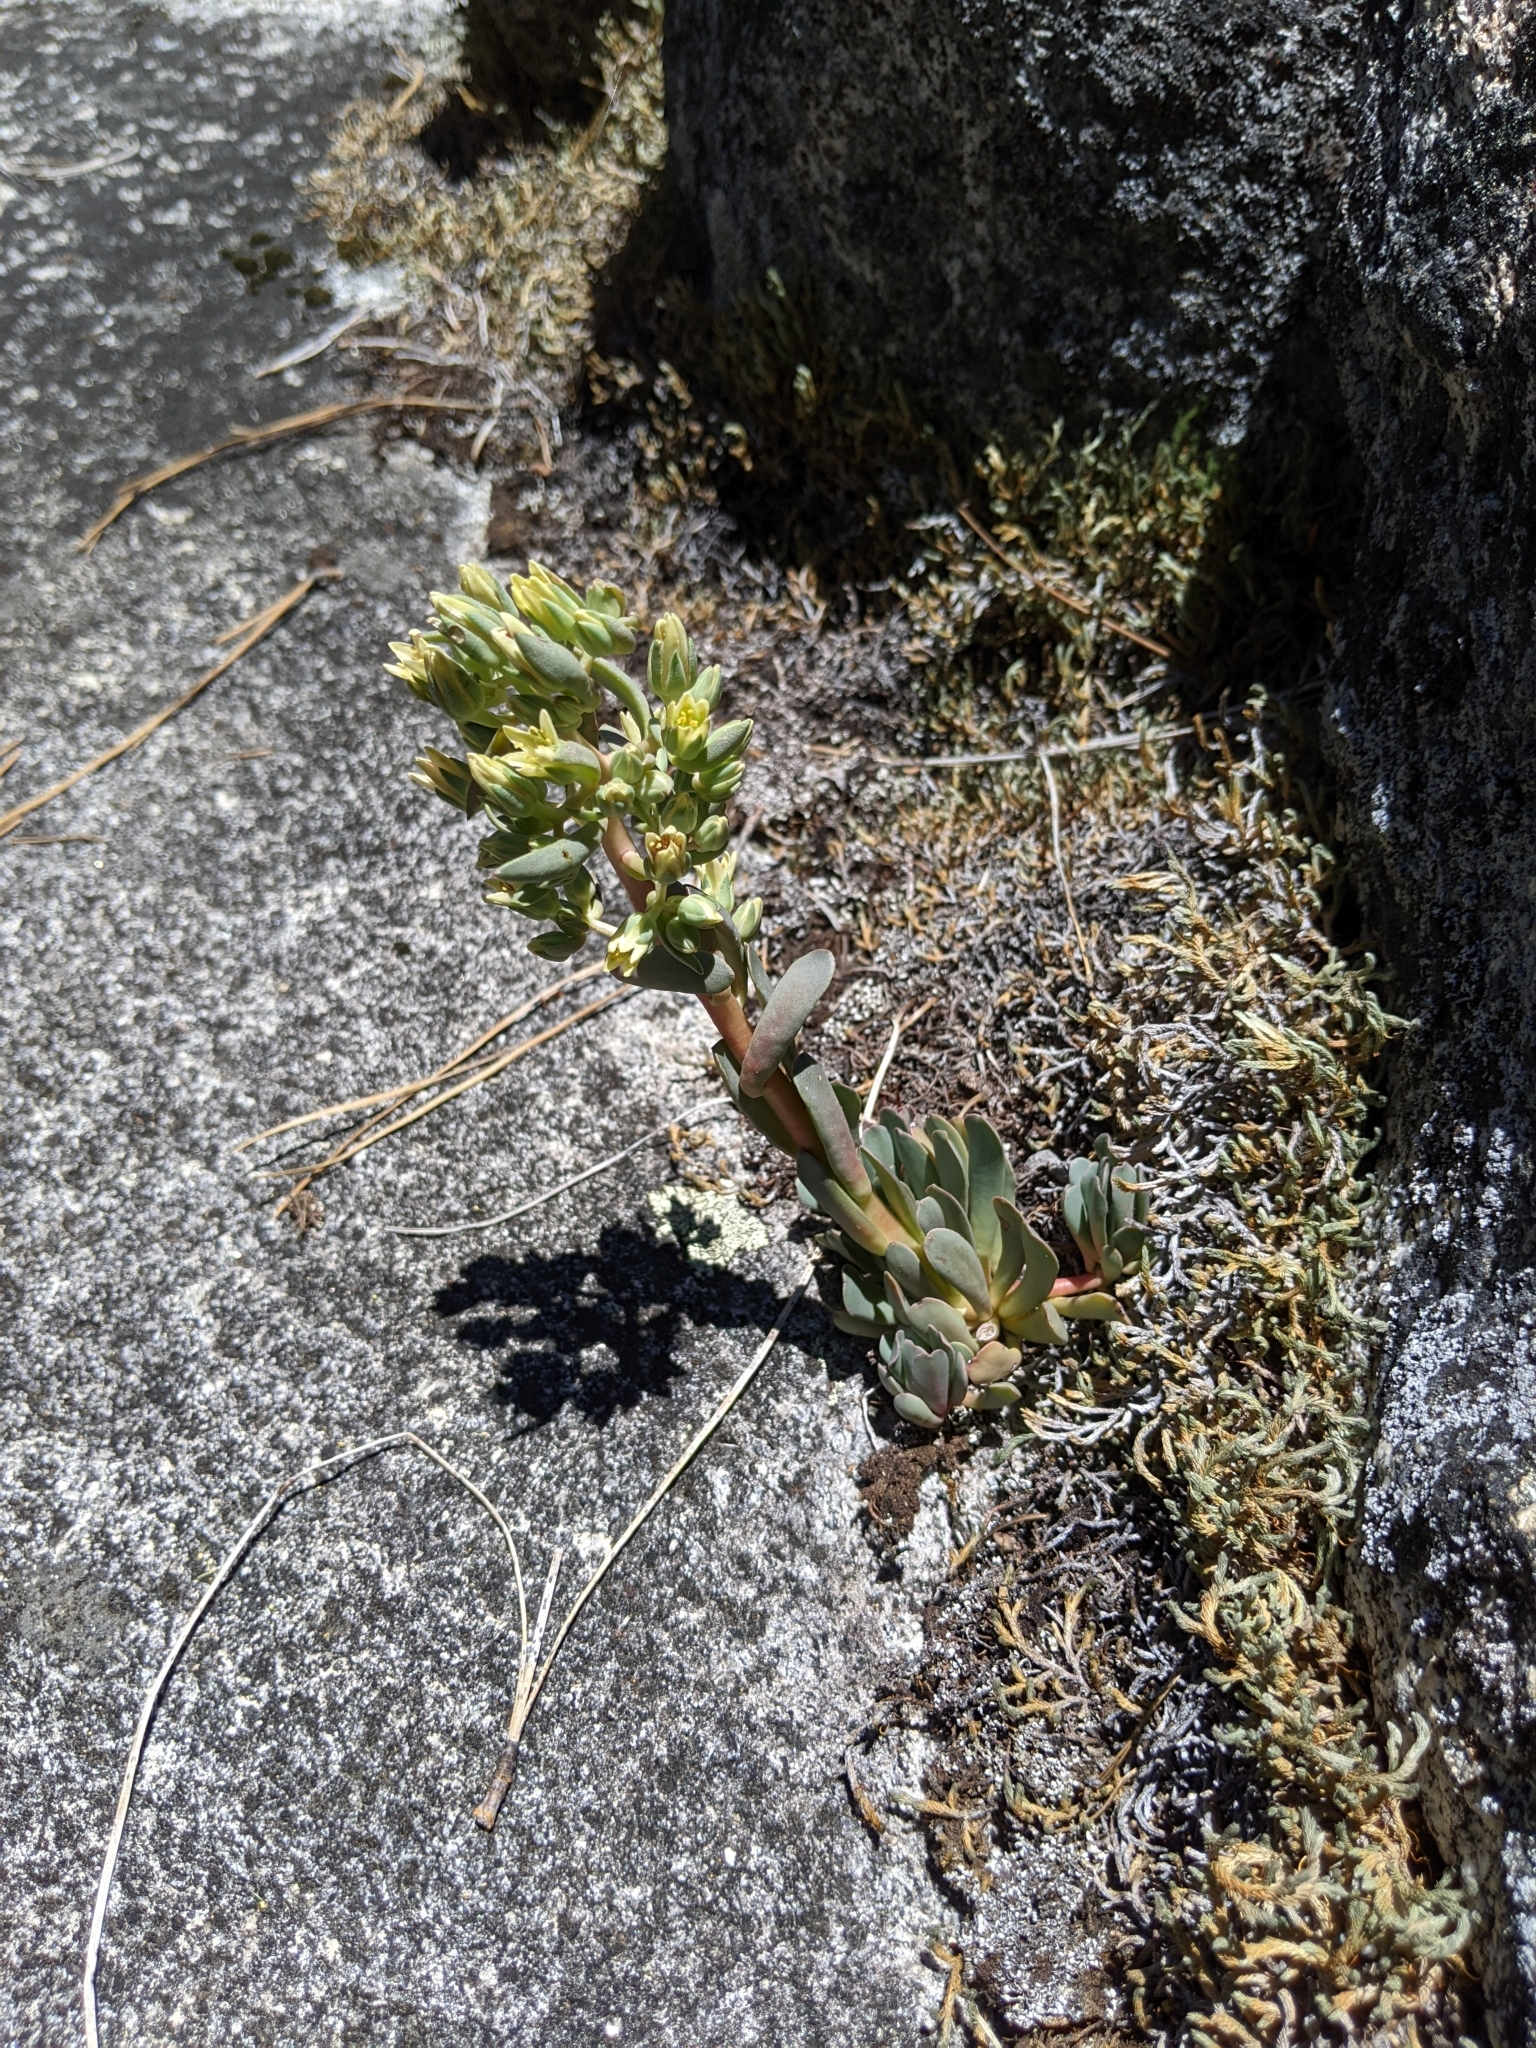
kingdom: Plantae
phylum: Tracheophyta
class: Magnoliopsida
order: Saxifragales
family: Crassulaceae
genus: Sedum
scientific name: Sedum paradisum
